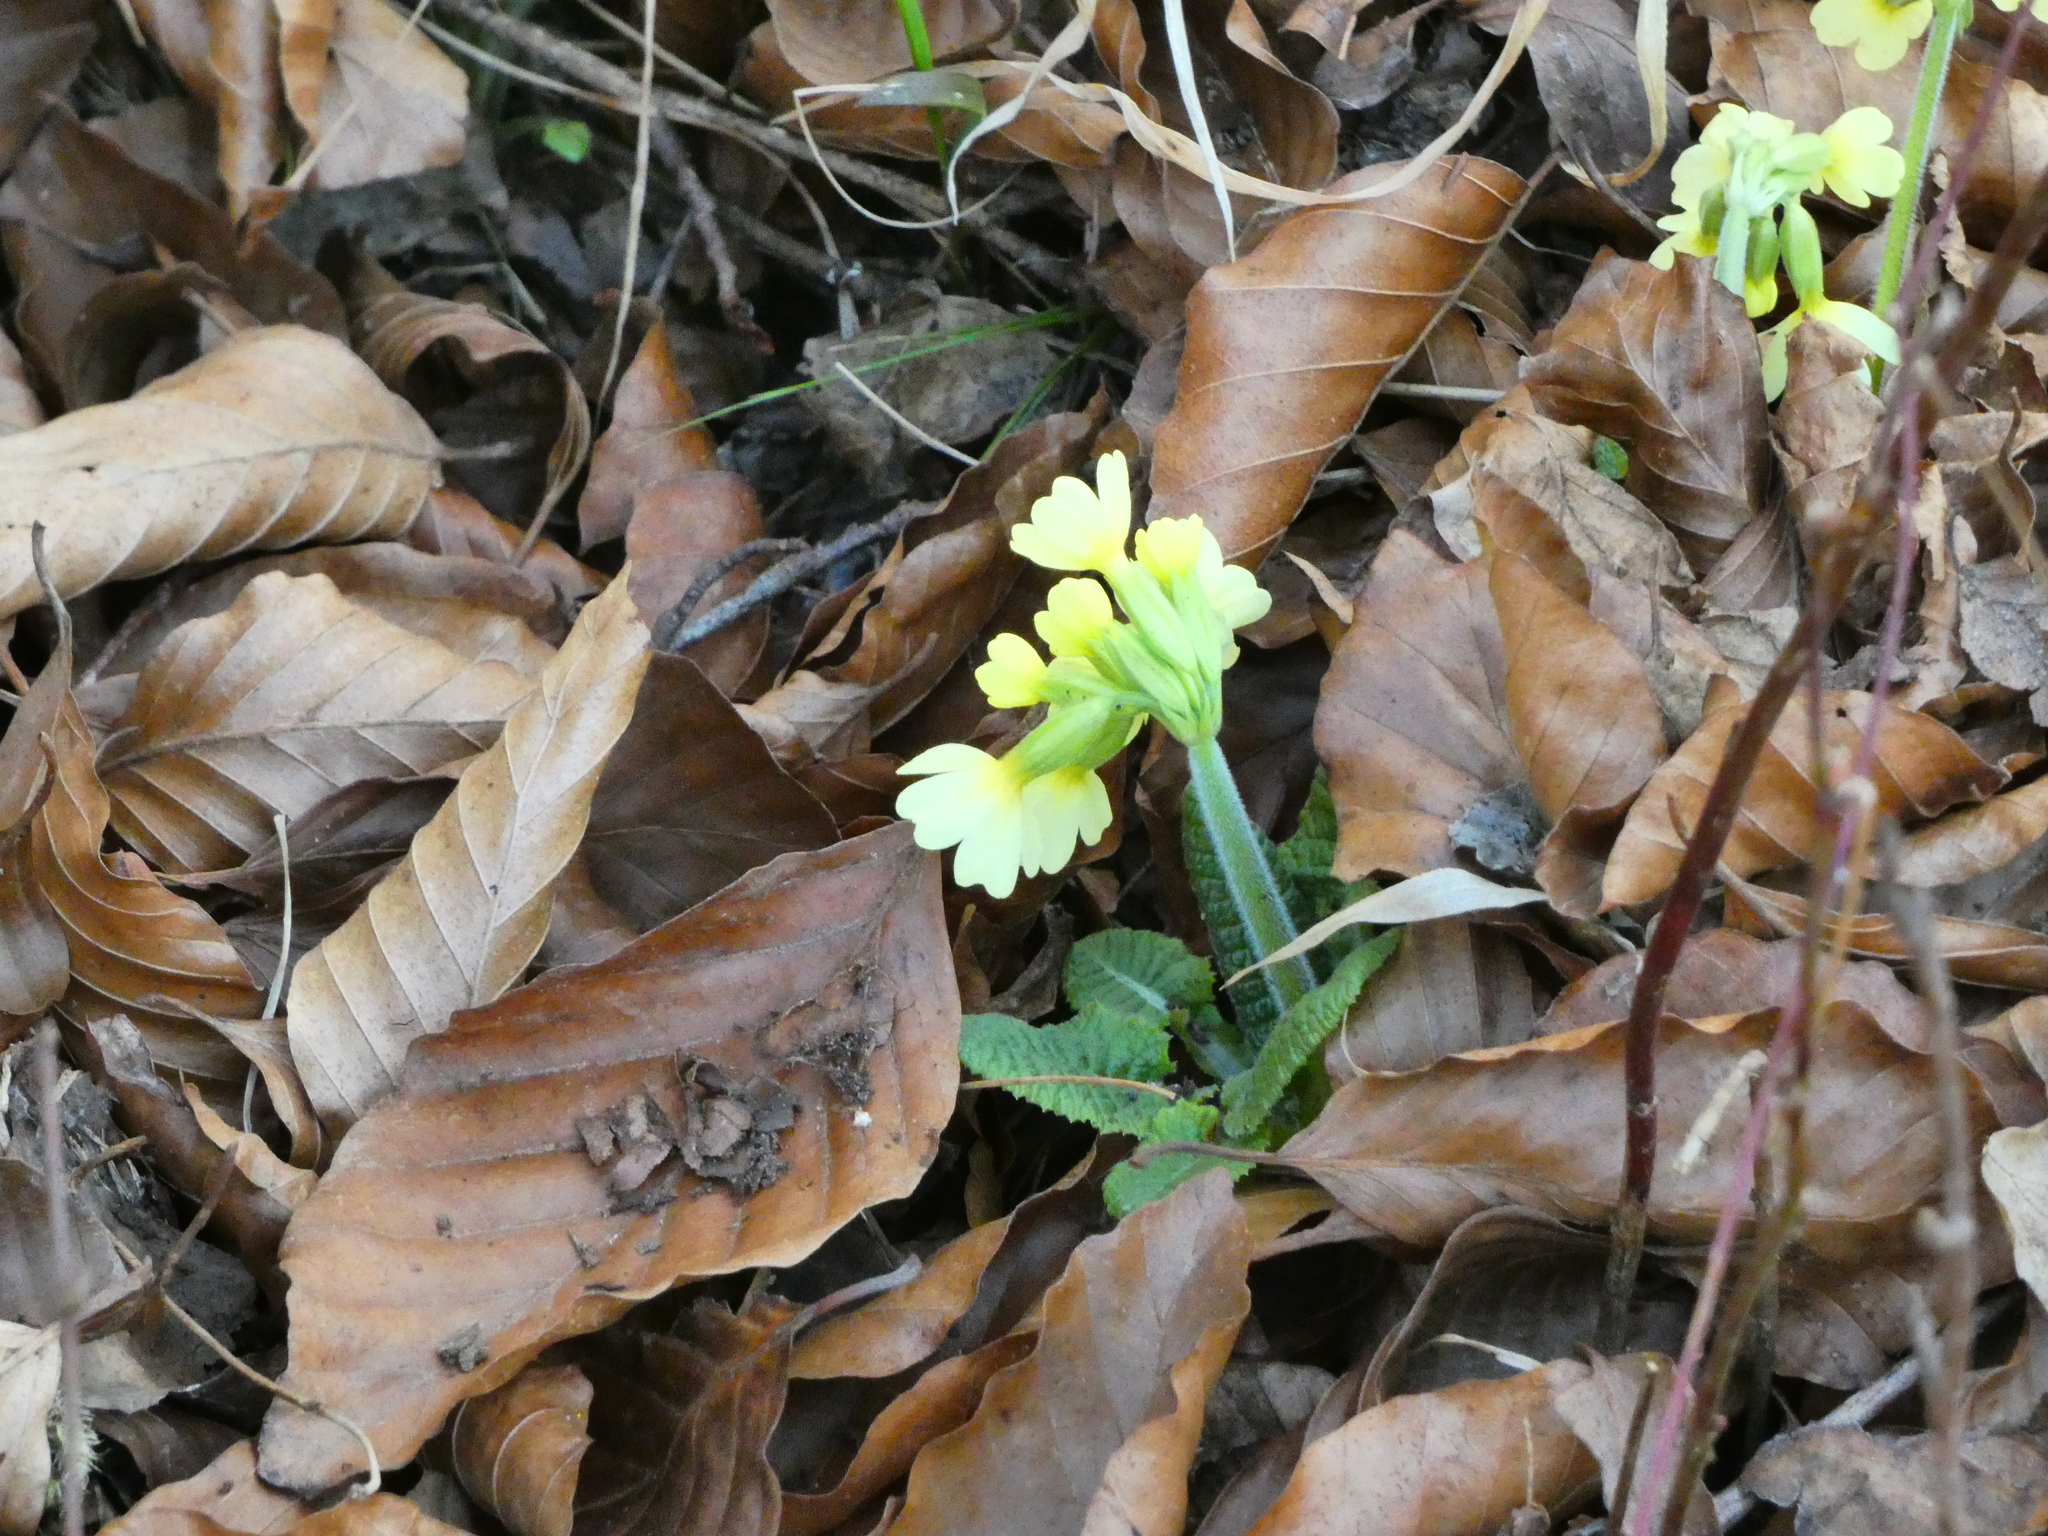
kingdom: Plantae
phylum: Tracheophyta
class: Magnoliopsida
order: Ericales
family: Primulaceae
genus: Primula
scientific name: Primula elatior
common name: Oxlip
